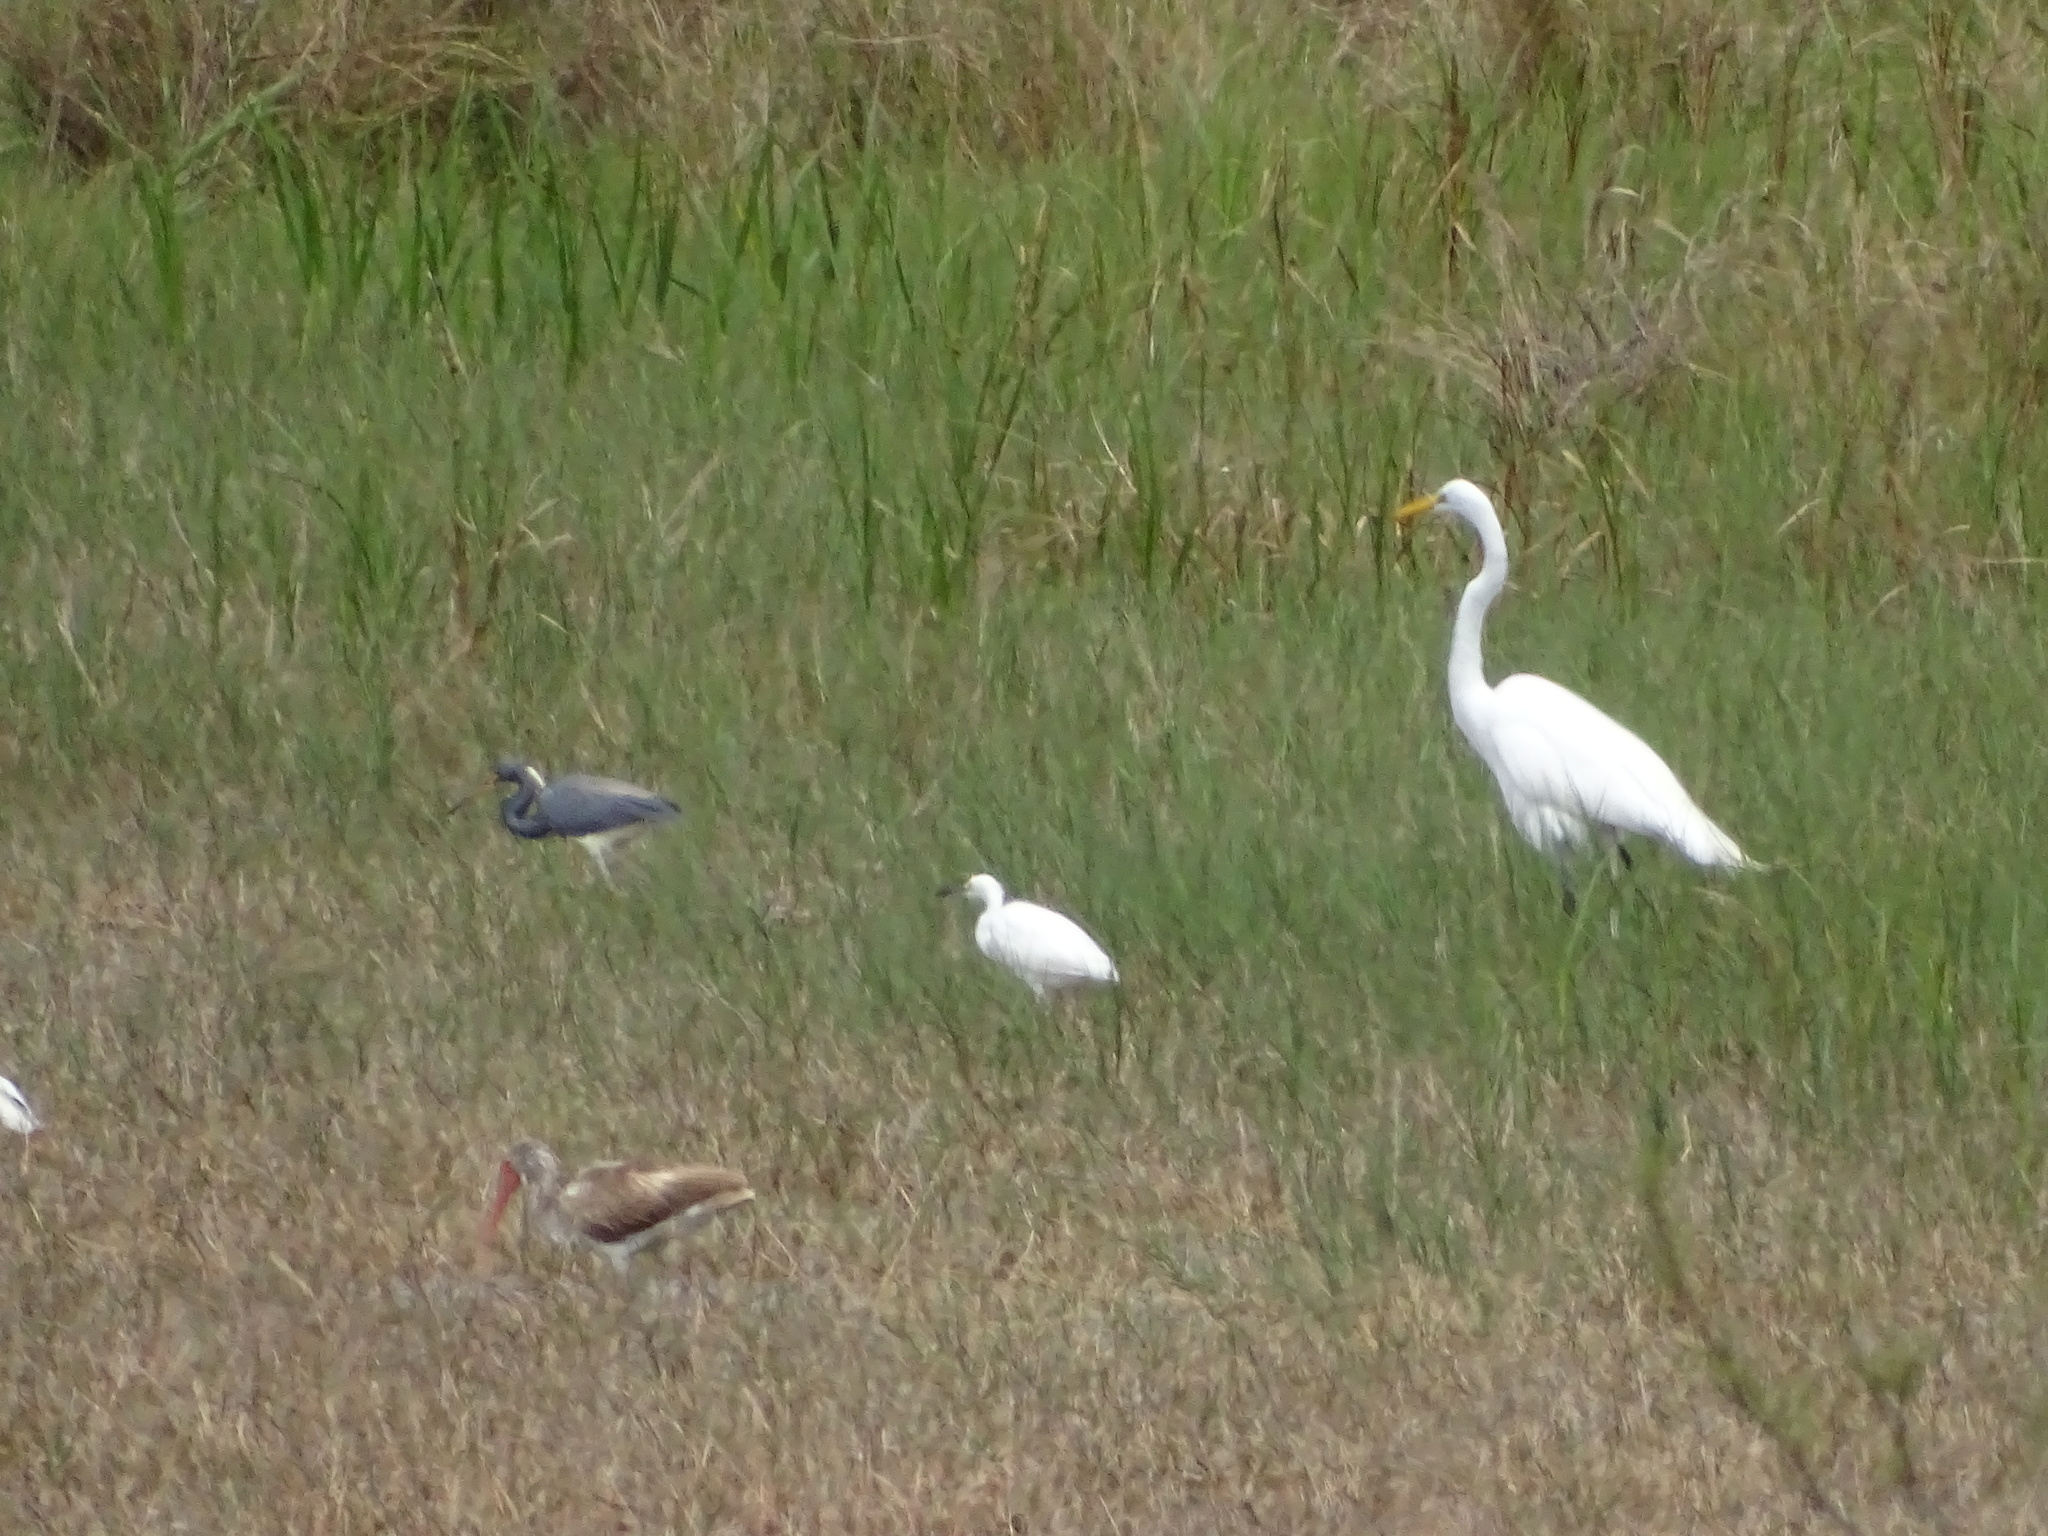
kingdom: Animalia
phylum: Chordata
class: Aves
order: Pelecaniformes
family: Ardeidae
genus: Egretta
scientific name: Egretta thula
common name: Snowy egret
